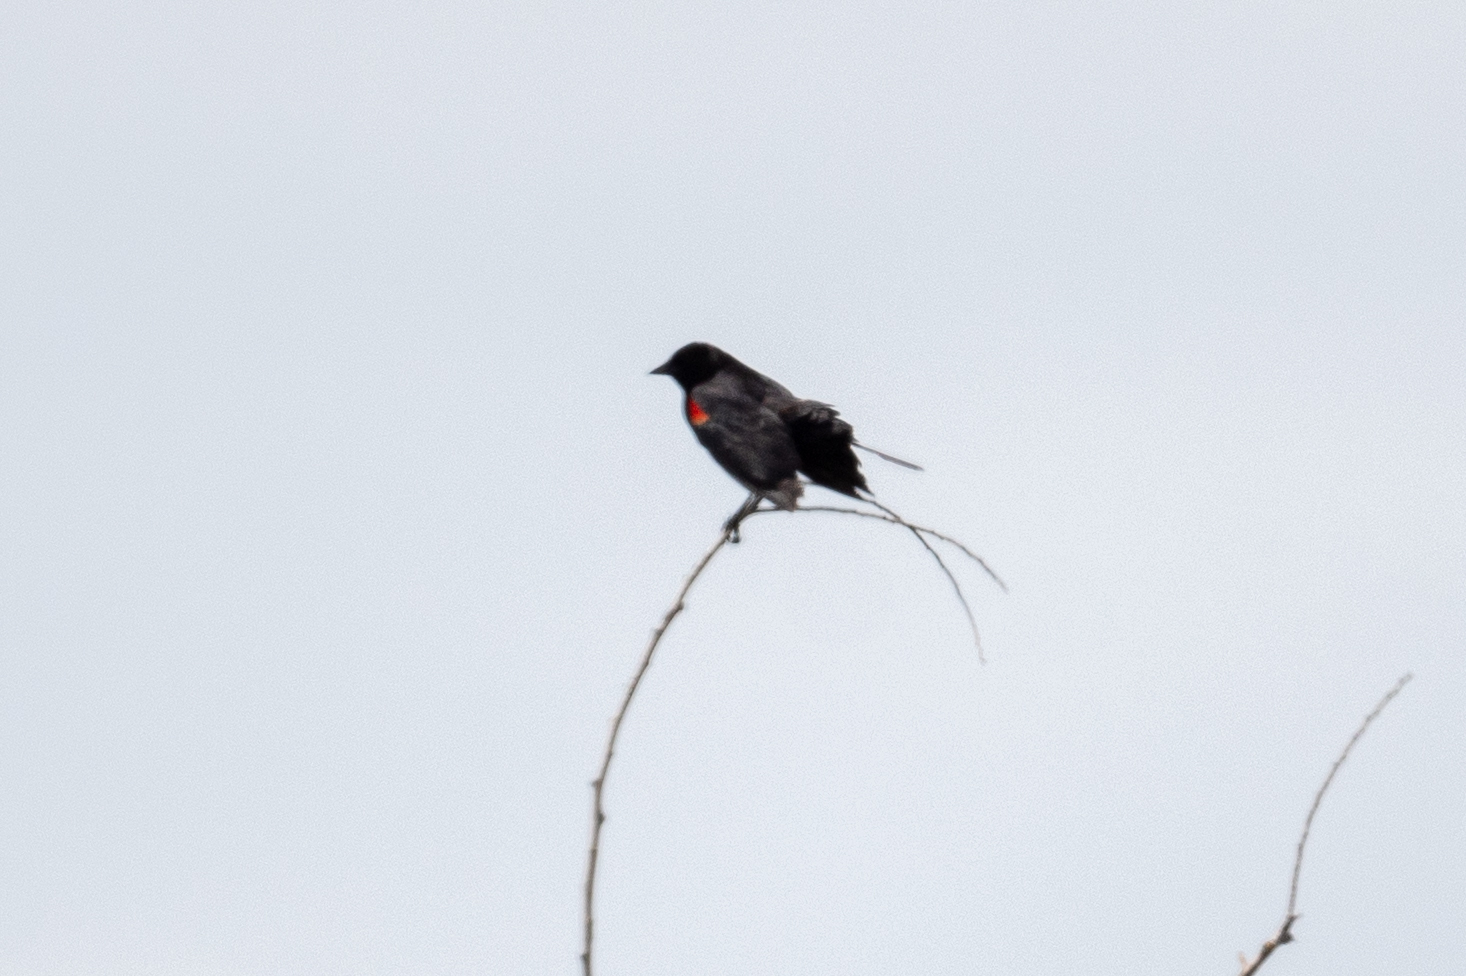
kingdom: Animalia
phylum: Chordata
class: Aves
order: Passeriformes
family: Icteridae
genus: Agelaius
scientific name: Agelaius phoeniceus
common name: Red-winged blackbird
